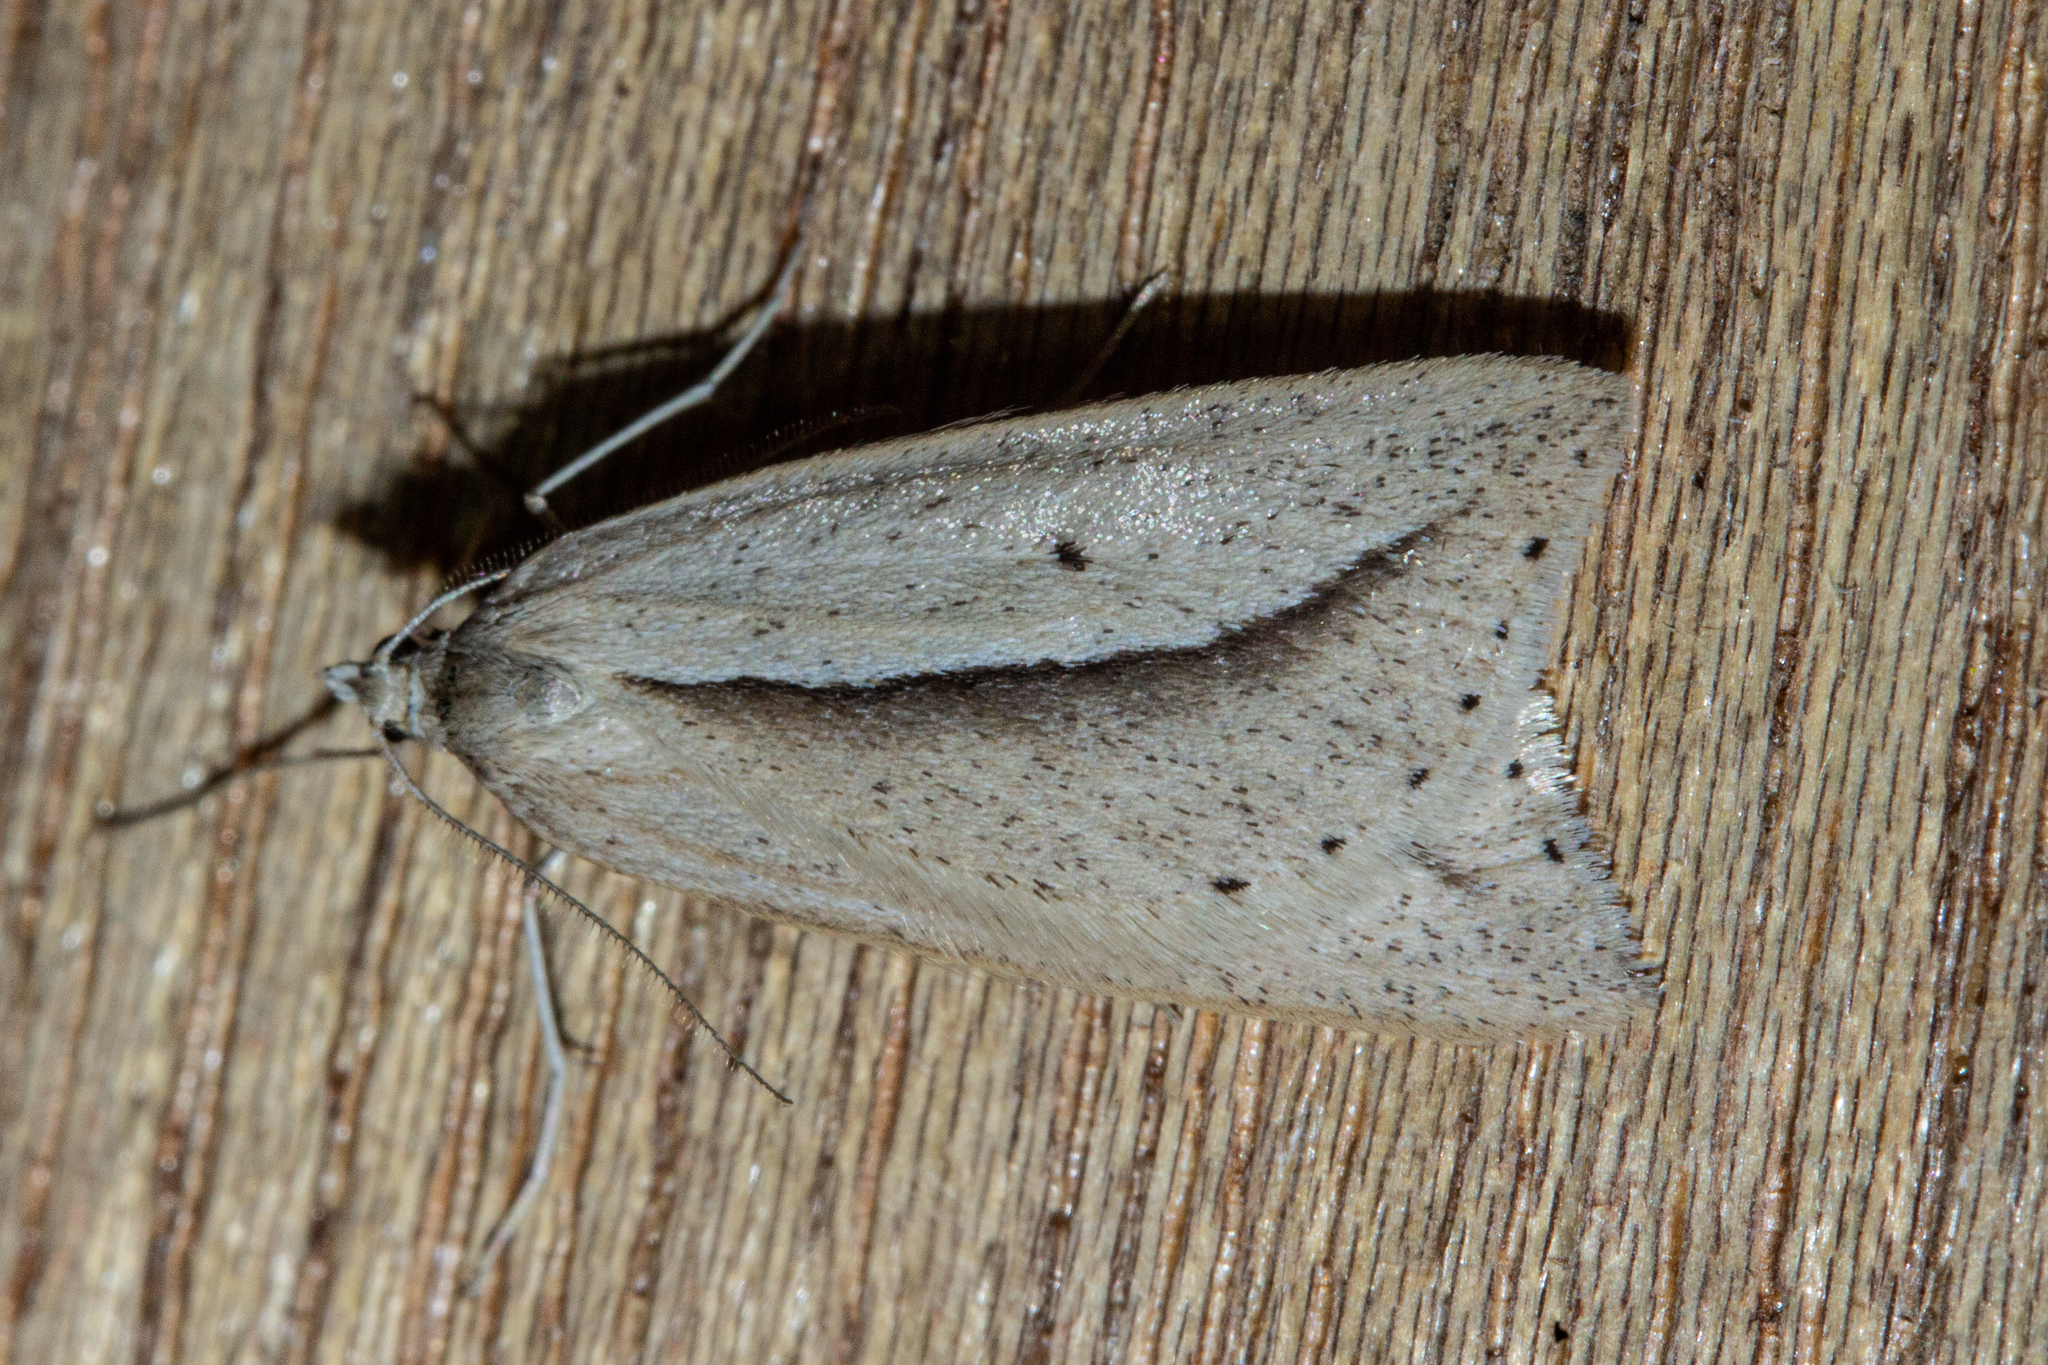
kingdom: Animalia
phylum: Arthropoda
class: Insecta
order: Lepidoptera
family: Geometridae
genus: Theoxena
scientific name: Theoxena scissaria
